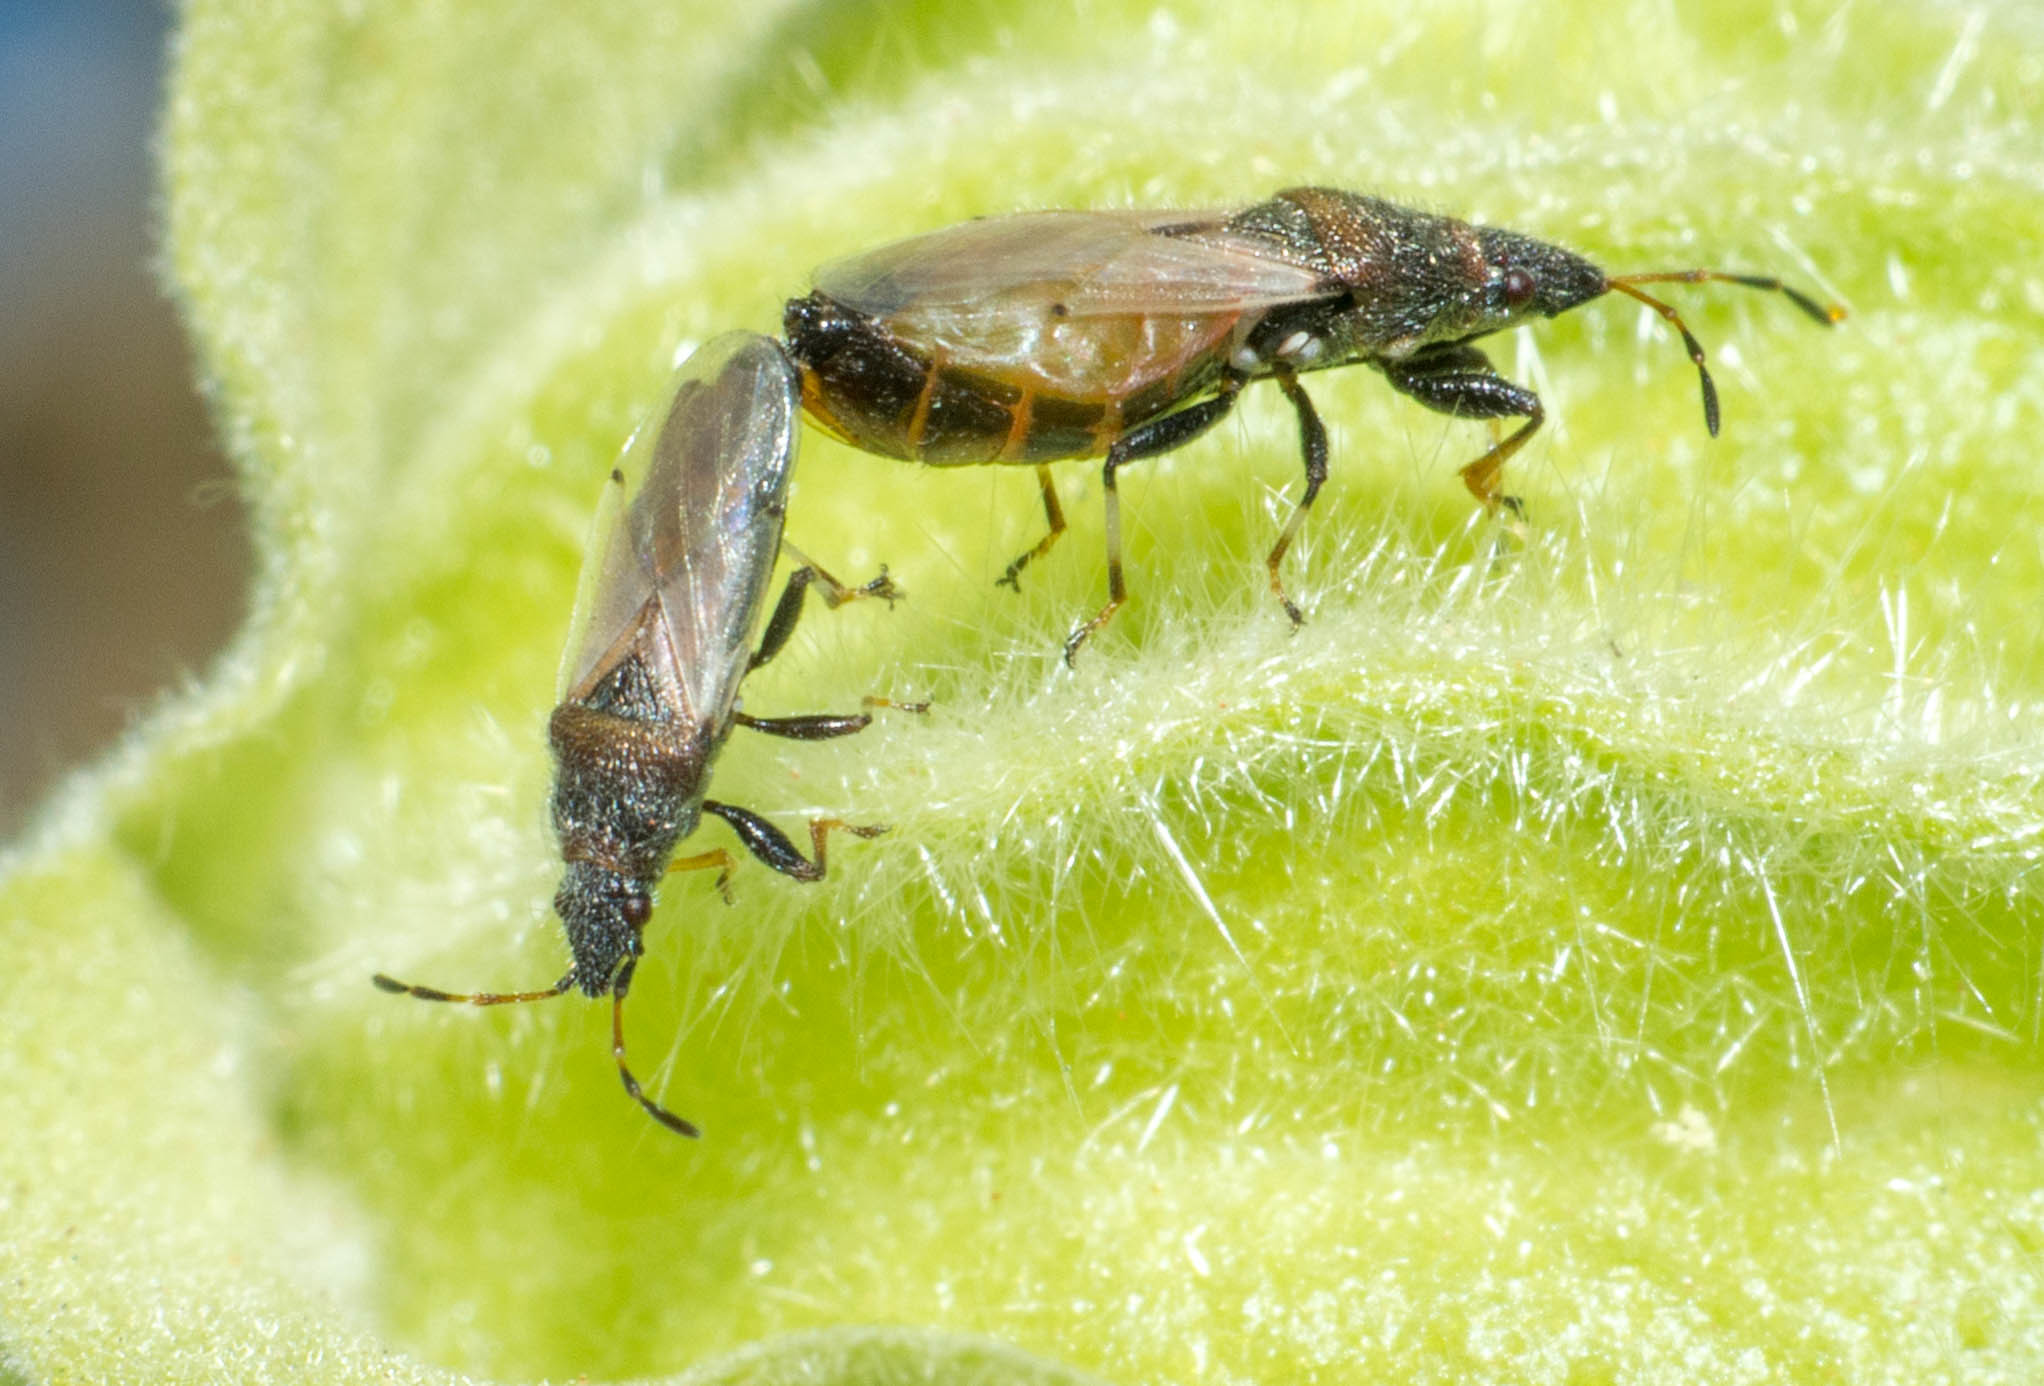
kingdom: Animalia
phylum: Arthropoda
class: Insecta
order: Hemiptera
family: Oxycarenidae
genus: Oxycarenus
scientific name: Oxycarenus hyalinipennis
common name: Cotton seed bug
